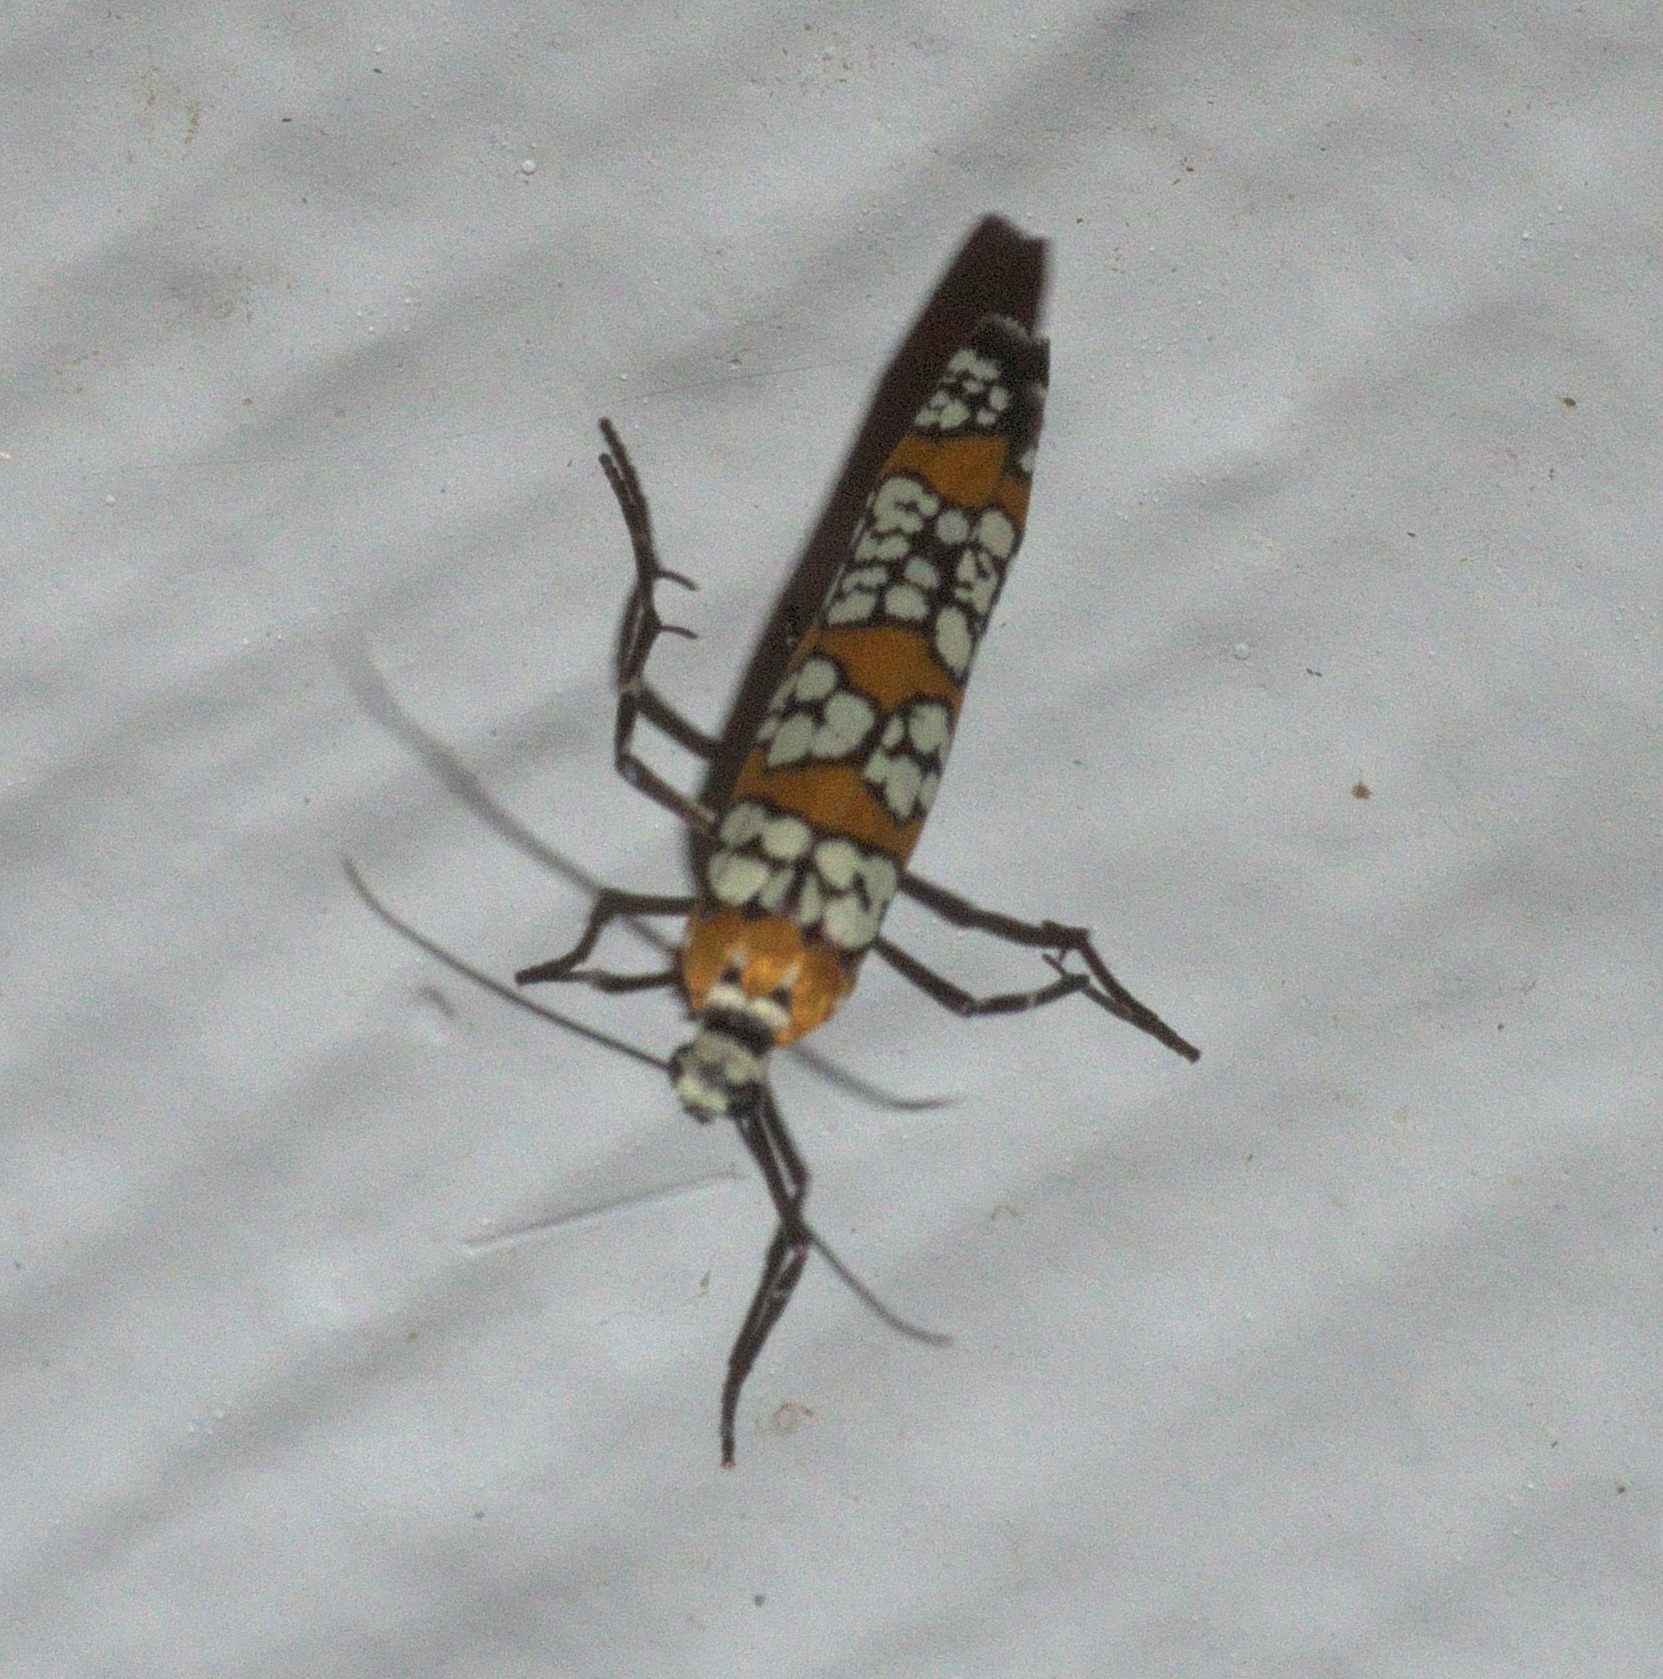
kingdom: Animalia
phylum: Arthropoda
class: Insecta
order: Lepidoptera
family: Attevidae
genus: Atteva
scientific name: Atteva punctella
